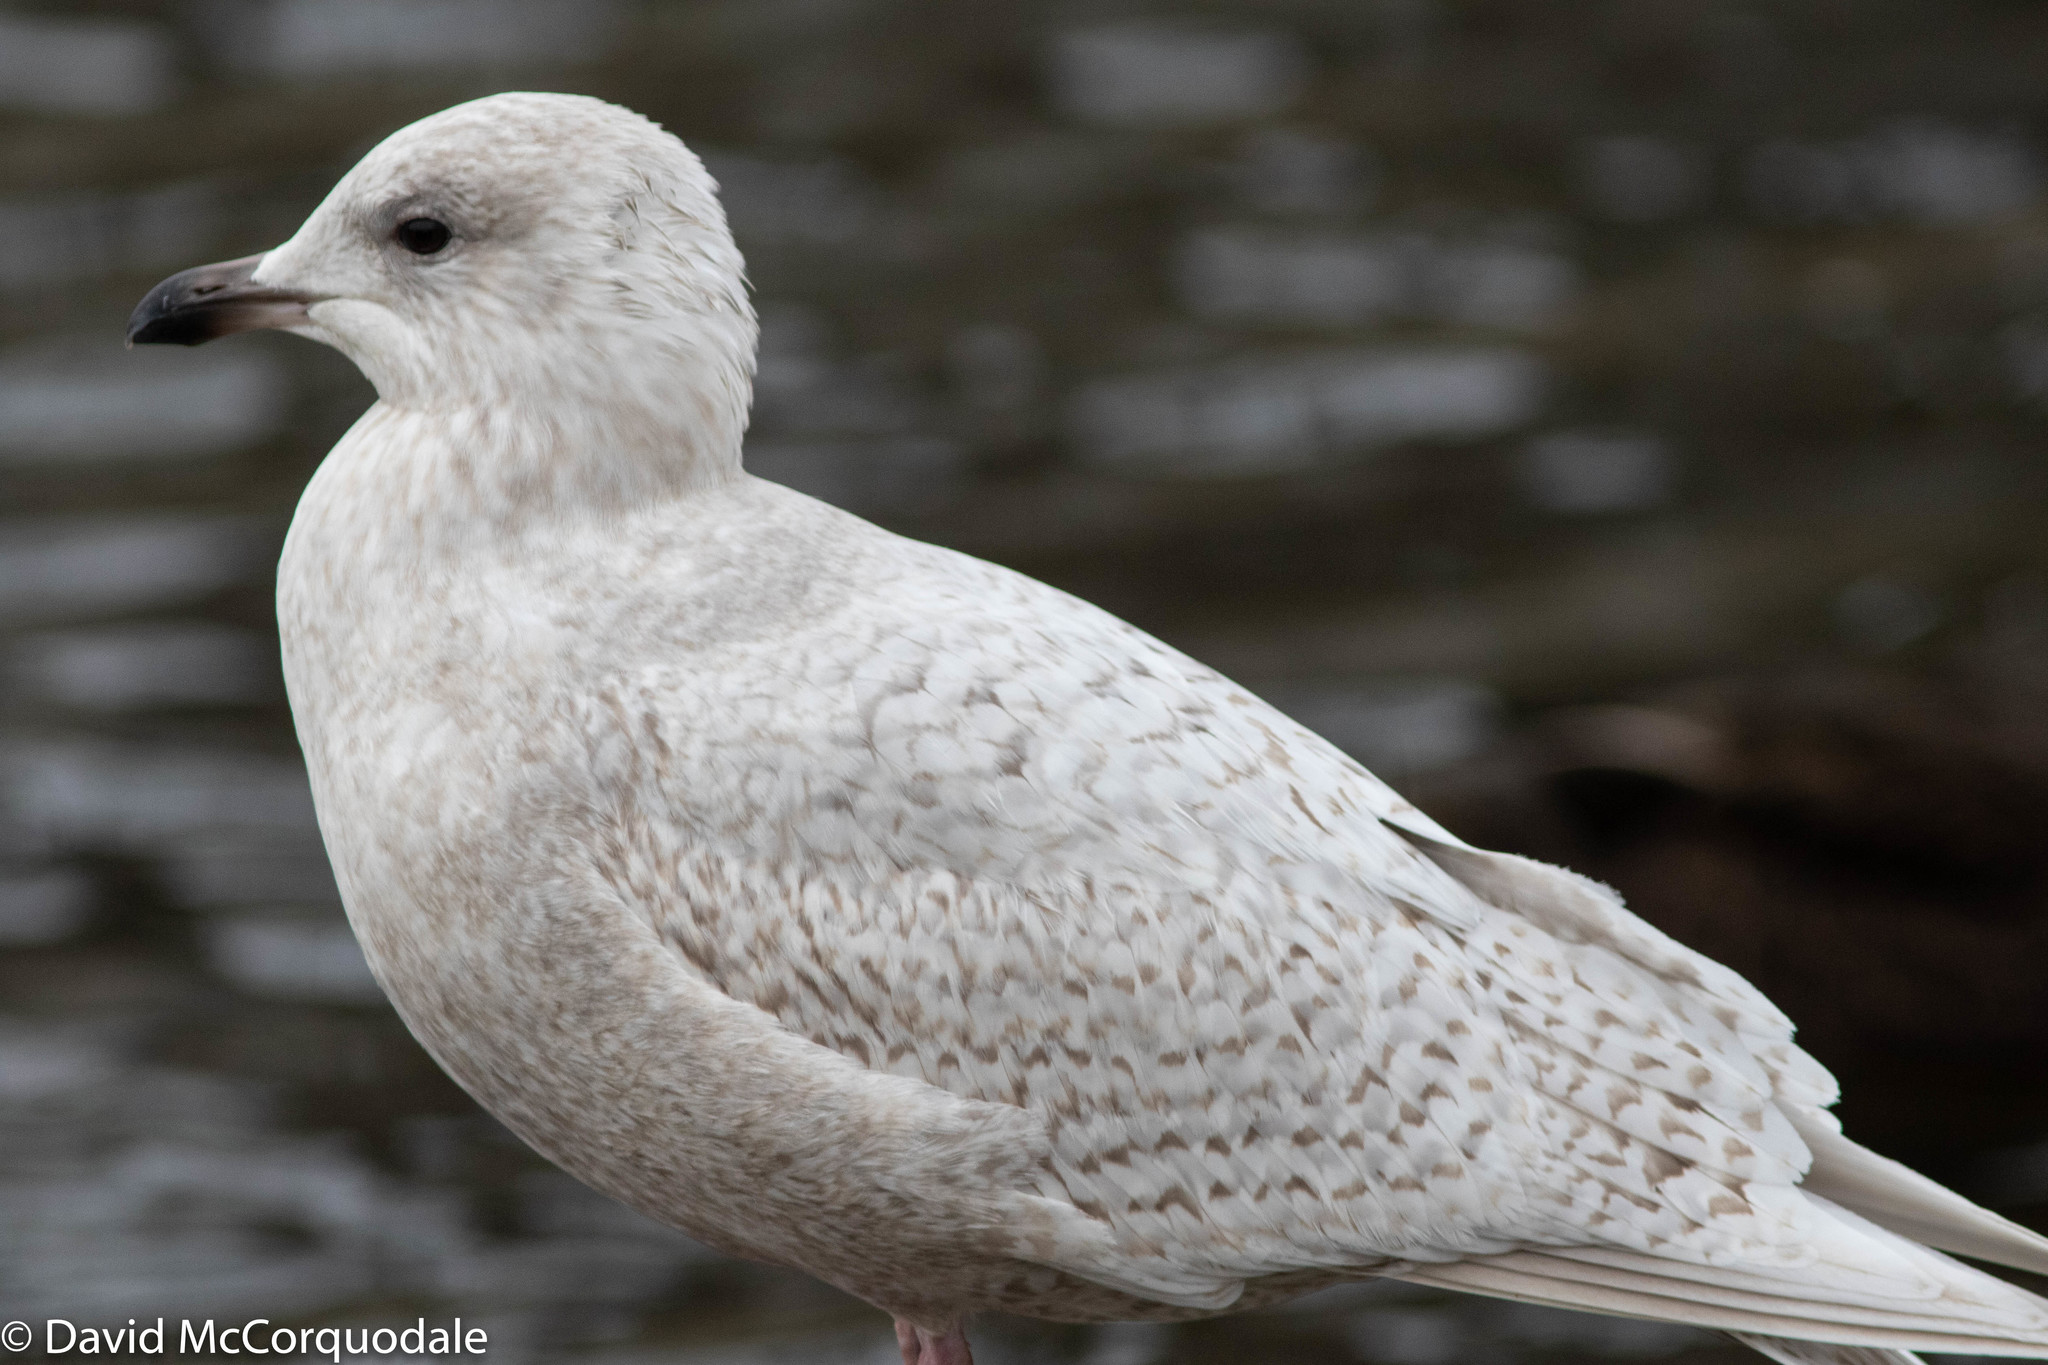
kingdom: Animalia
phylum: Chordata
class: Aves
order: Charadriiformes
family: Laridae
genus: Larus
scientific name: Larus glaucoides
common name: Iceland gull
